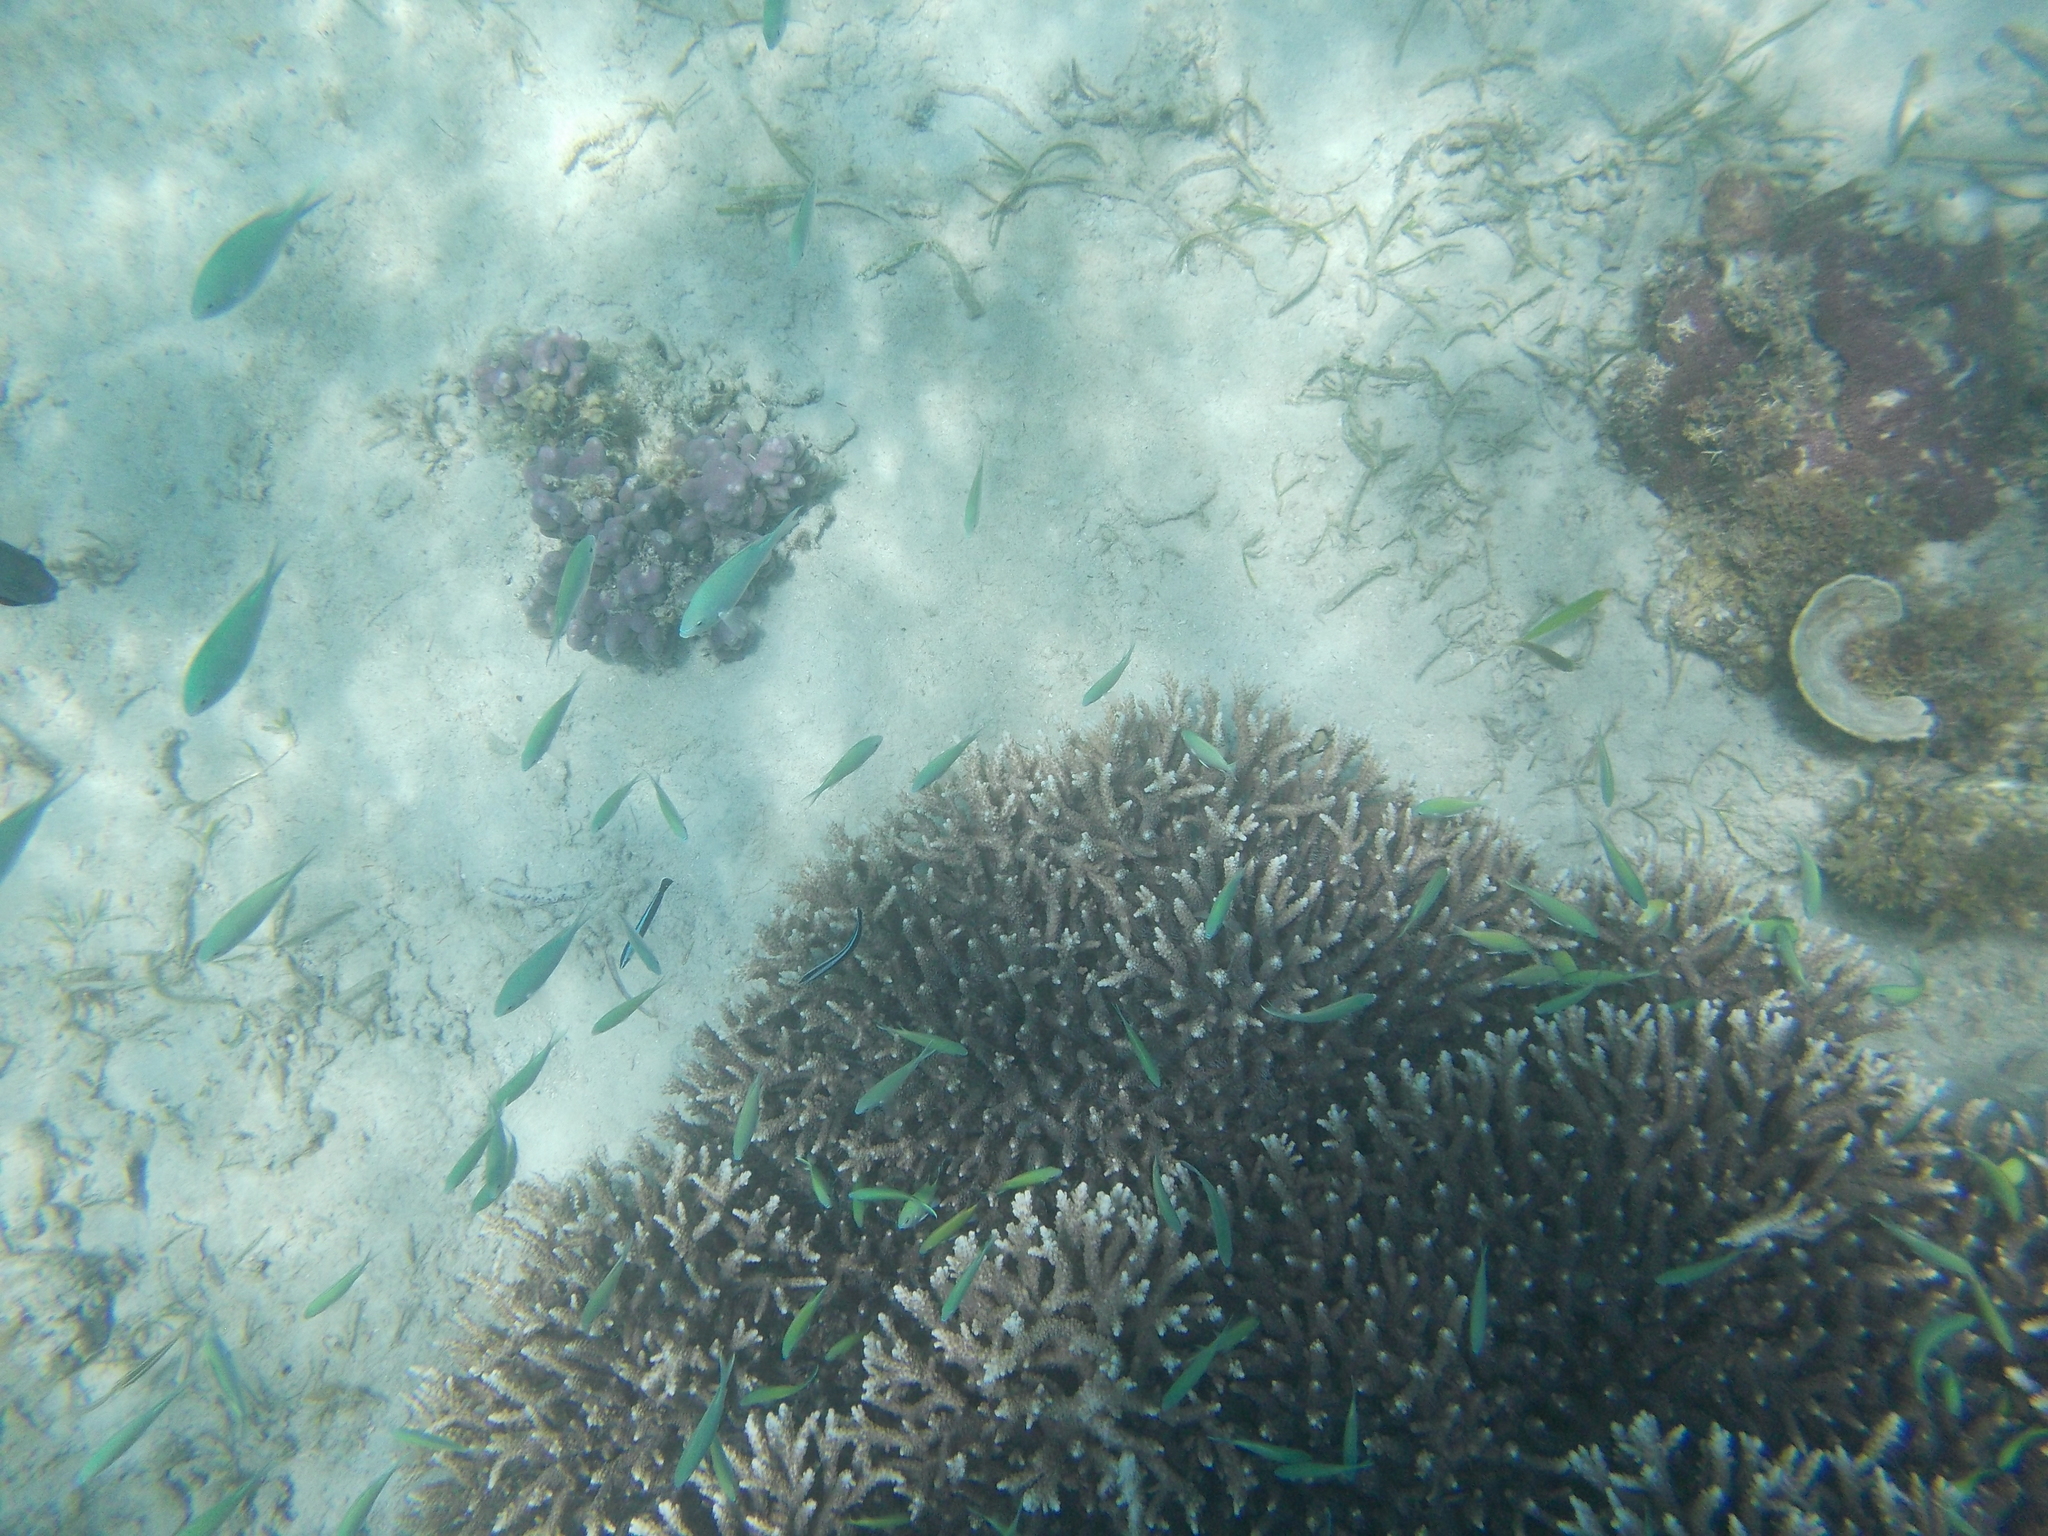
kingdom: Animalia
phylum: Chordata
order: Perciformes
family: Pomacentridae
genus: Chromis
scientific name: Chromis viridis
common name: Blue-green chromis
